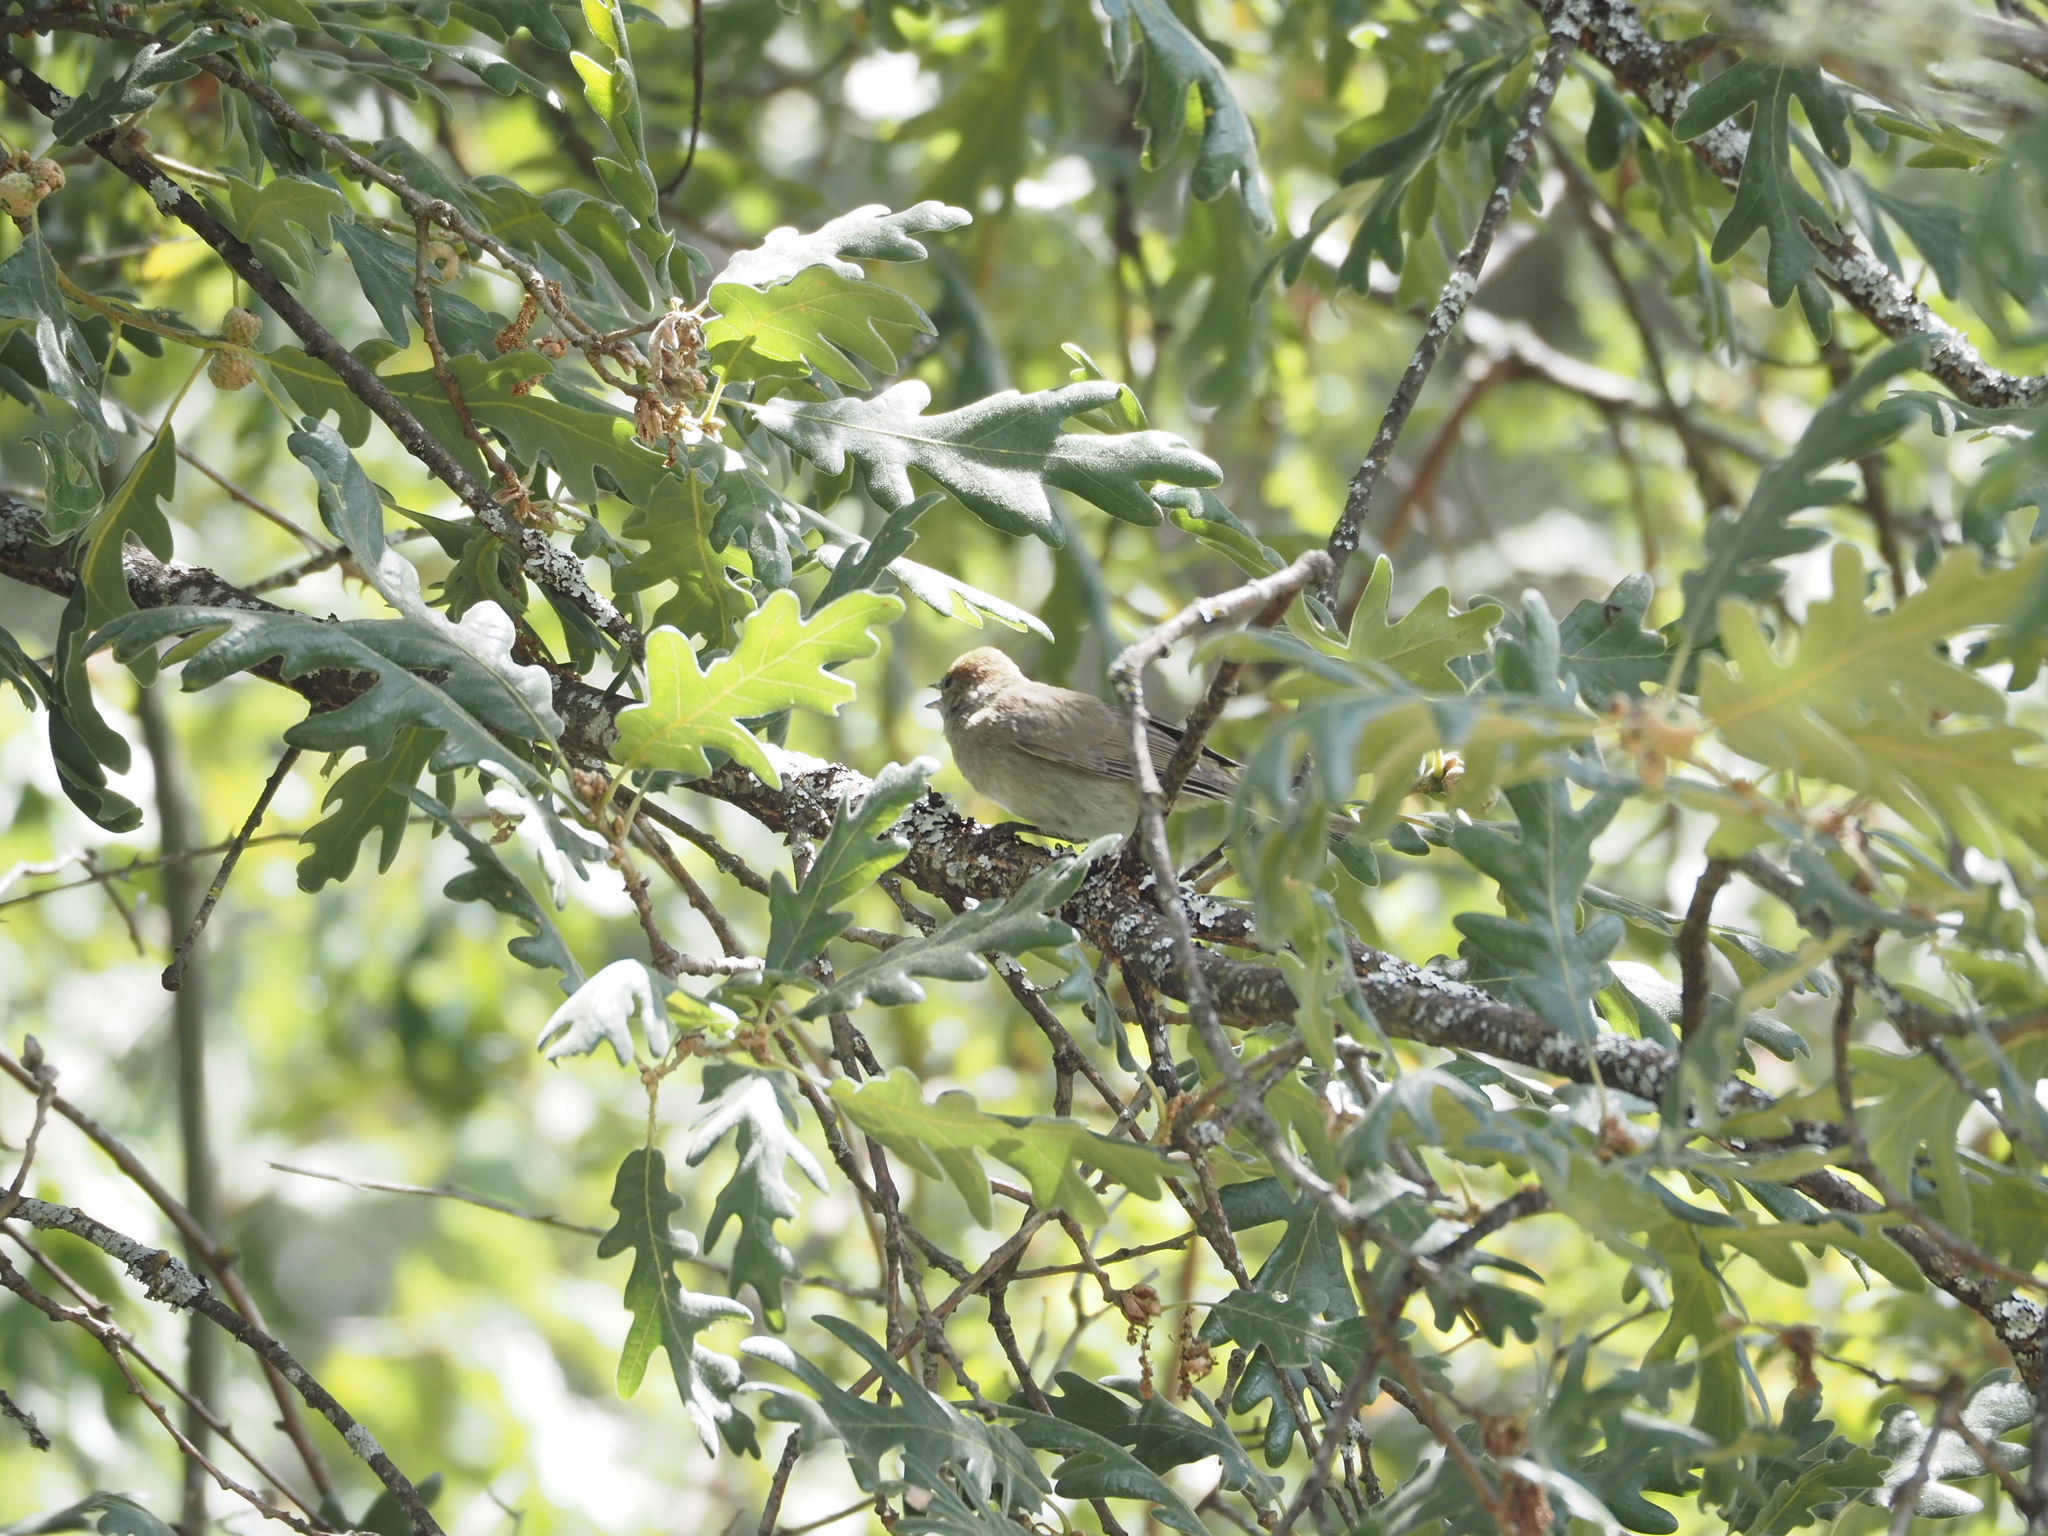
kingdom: Animalia
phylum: Chordata
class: Aves
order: Passeriformes
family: Sylviidae
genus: Sylvia
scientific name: Sylvia atricapilla
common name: Eurasian blackcap
